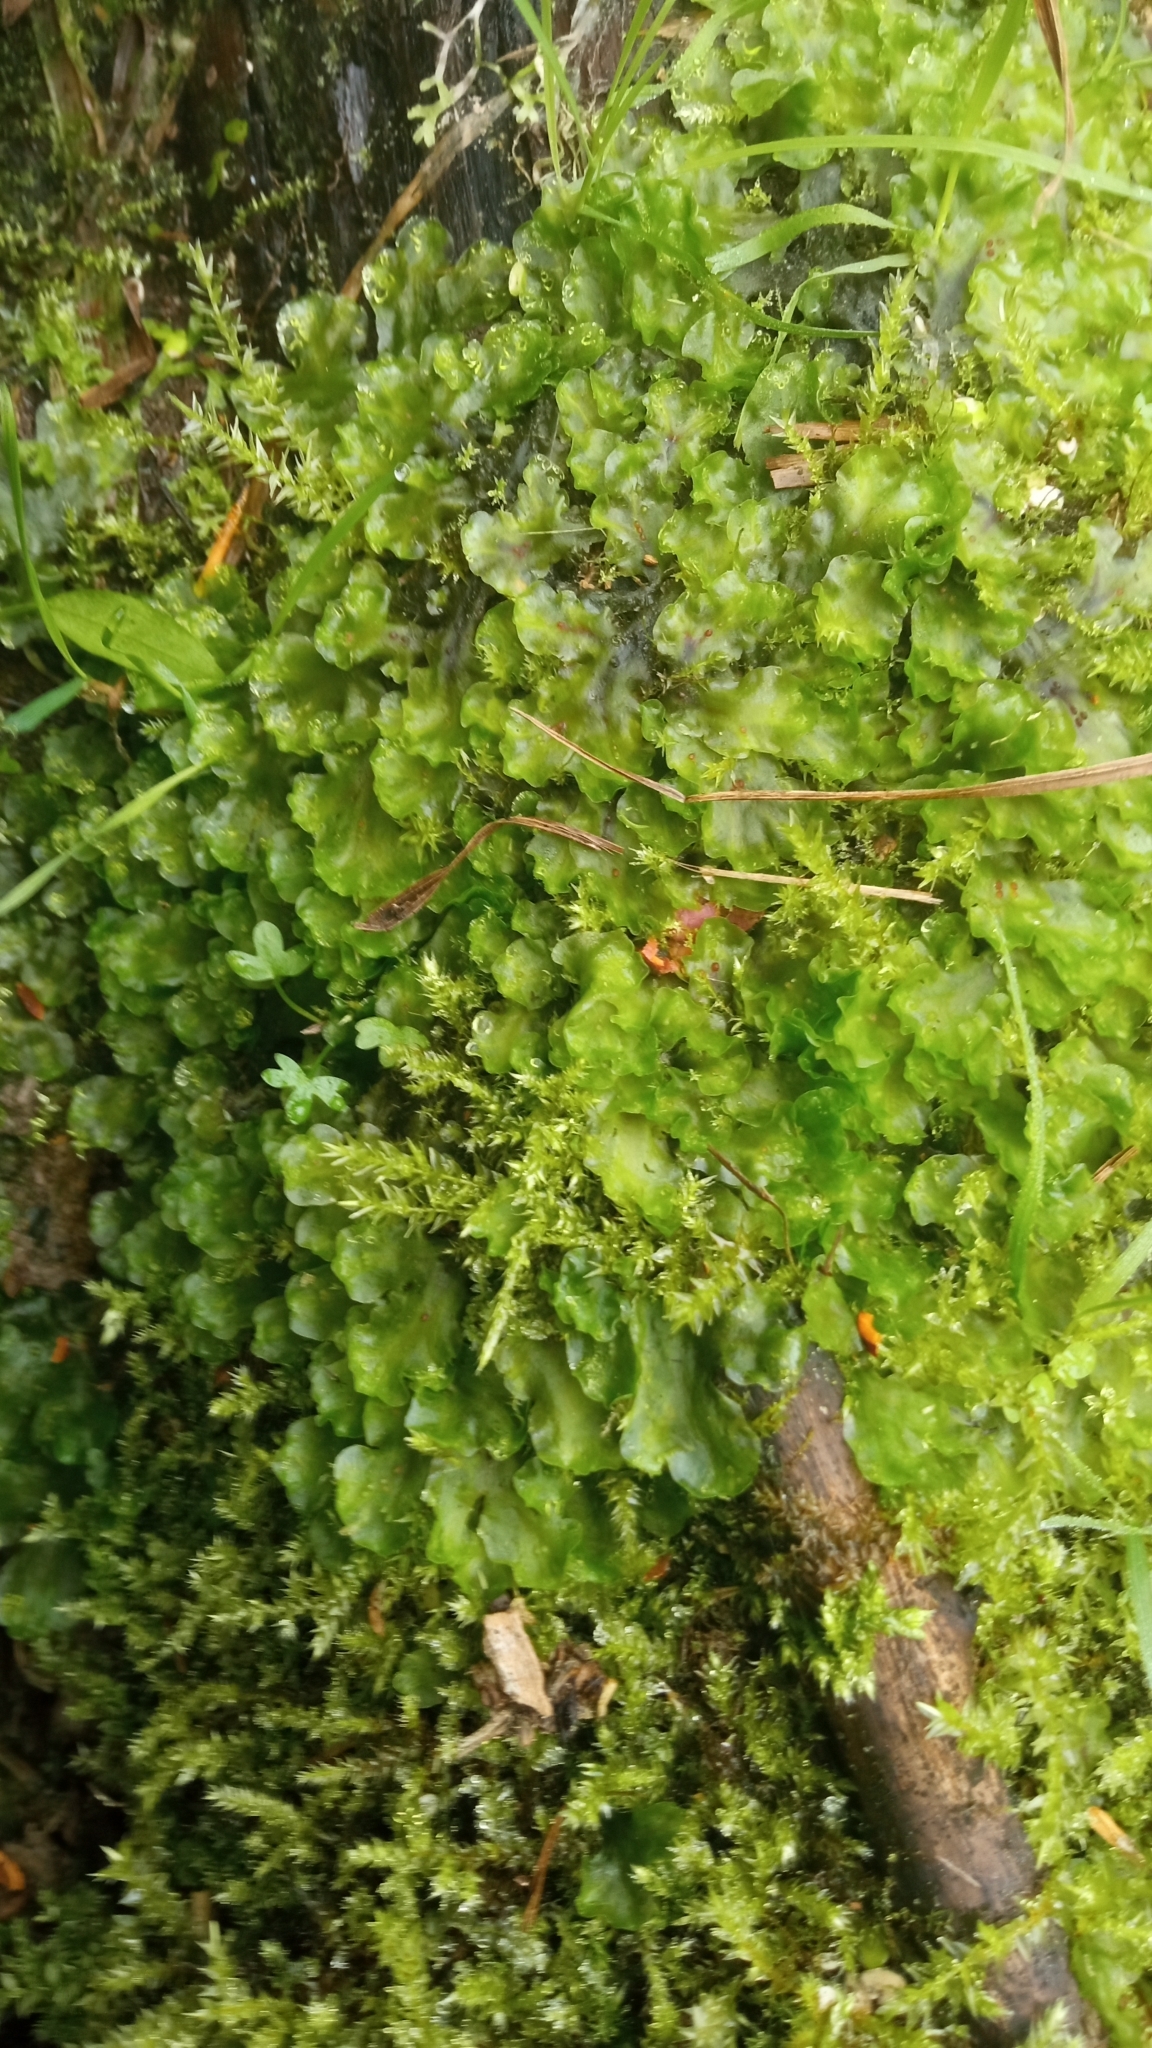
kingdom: Plantae
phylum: Marchantiophyta
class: Jungermanniopsida
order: Pelliales
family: Pelliaceae
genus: Pellia
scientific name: Pellia neesiana
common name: Nees  pellia
